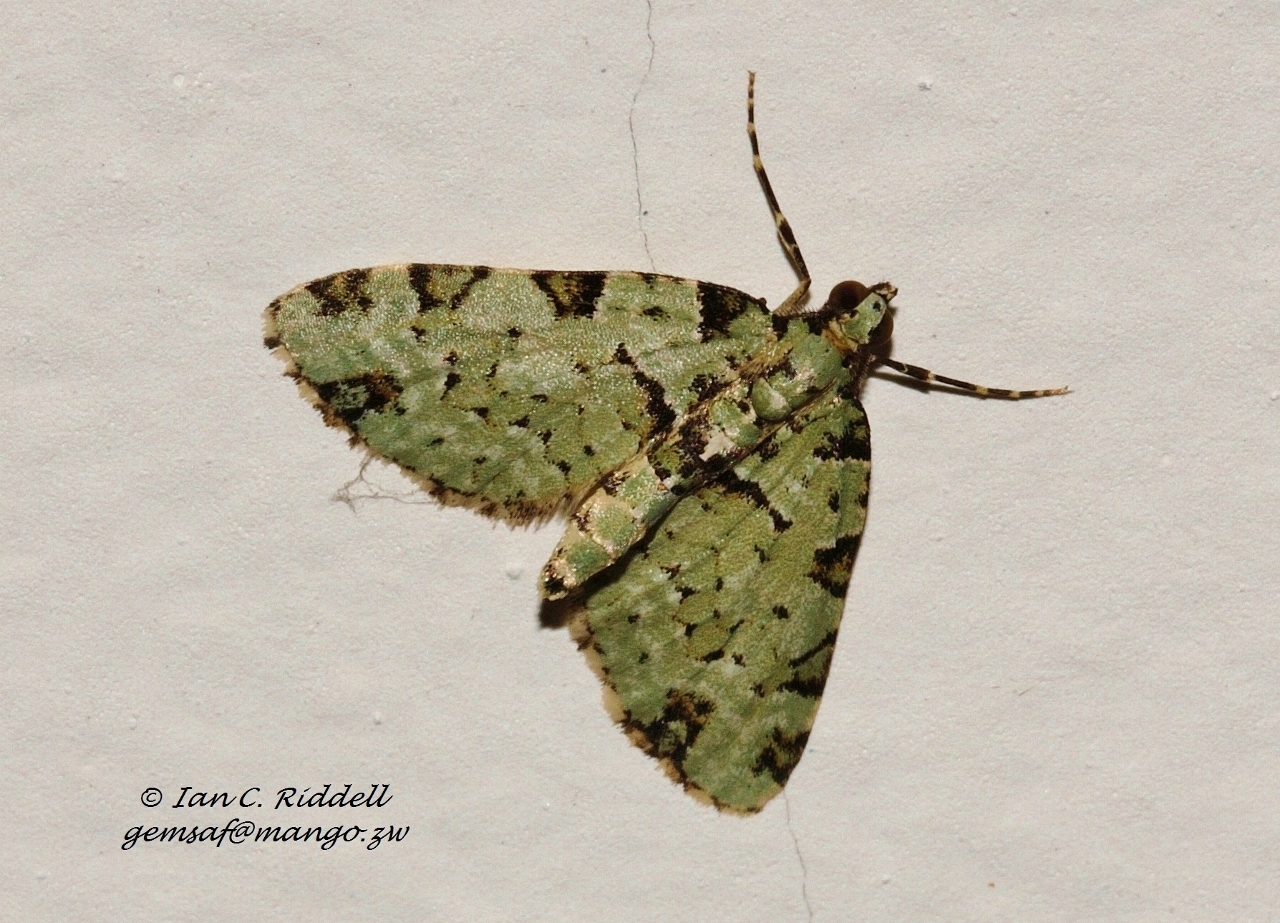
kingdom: Animalia
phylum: Arthropoda
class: Insecta
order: Lepidoptera
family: Geometridae
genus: Piercia
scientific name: Piercia bryophilaria
